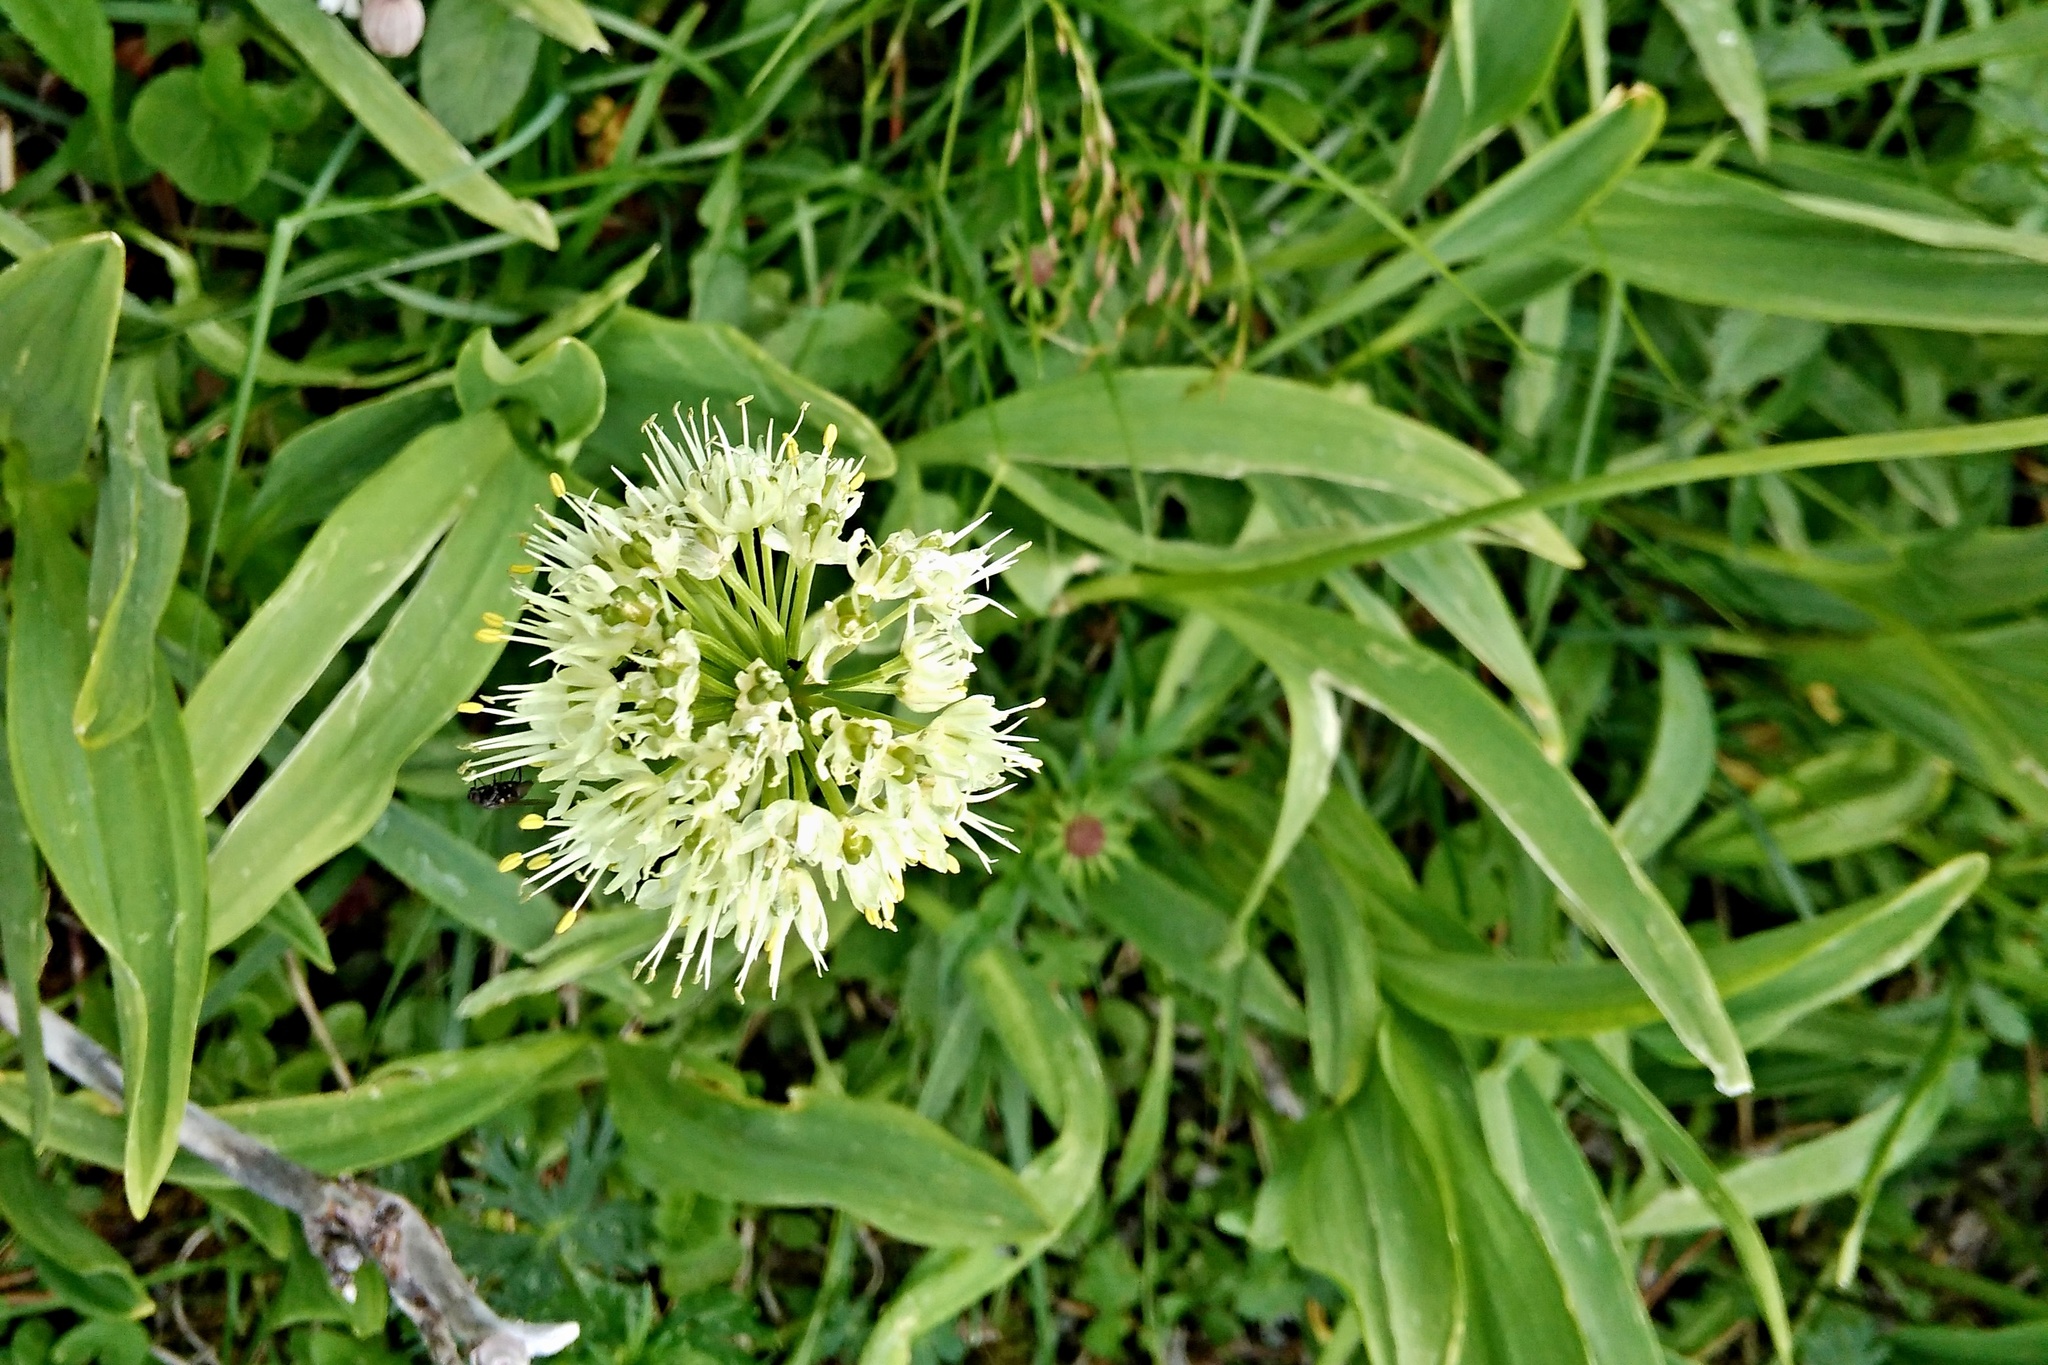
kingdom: Plantae
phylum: Tracheophyta
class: Liliopsida
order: Asparagales
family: Amaryllidaceae
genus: Allium
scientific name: Allium victorialis
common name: Alpine leek
